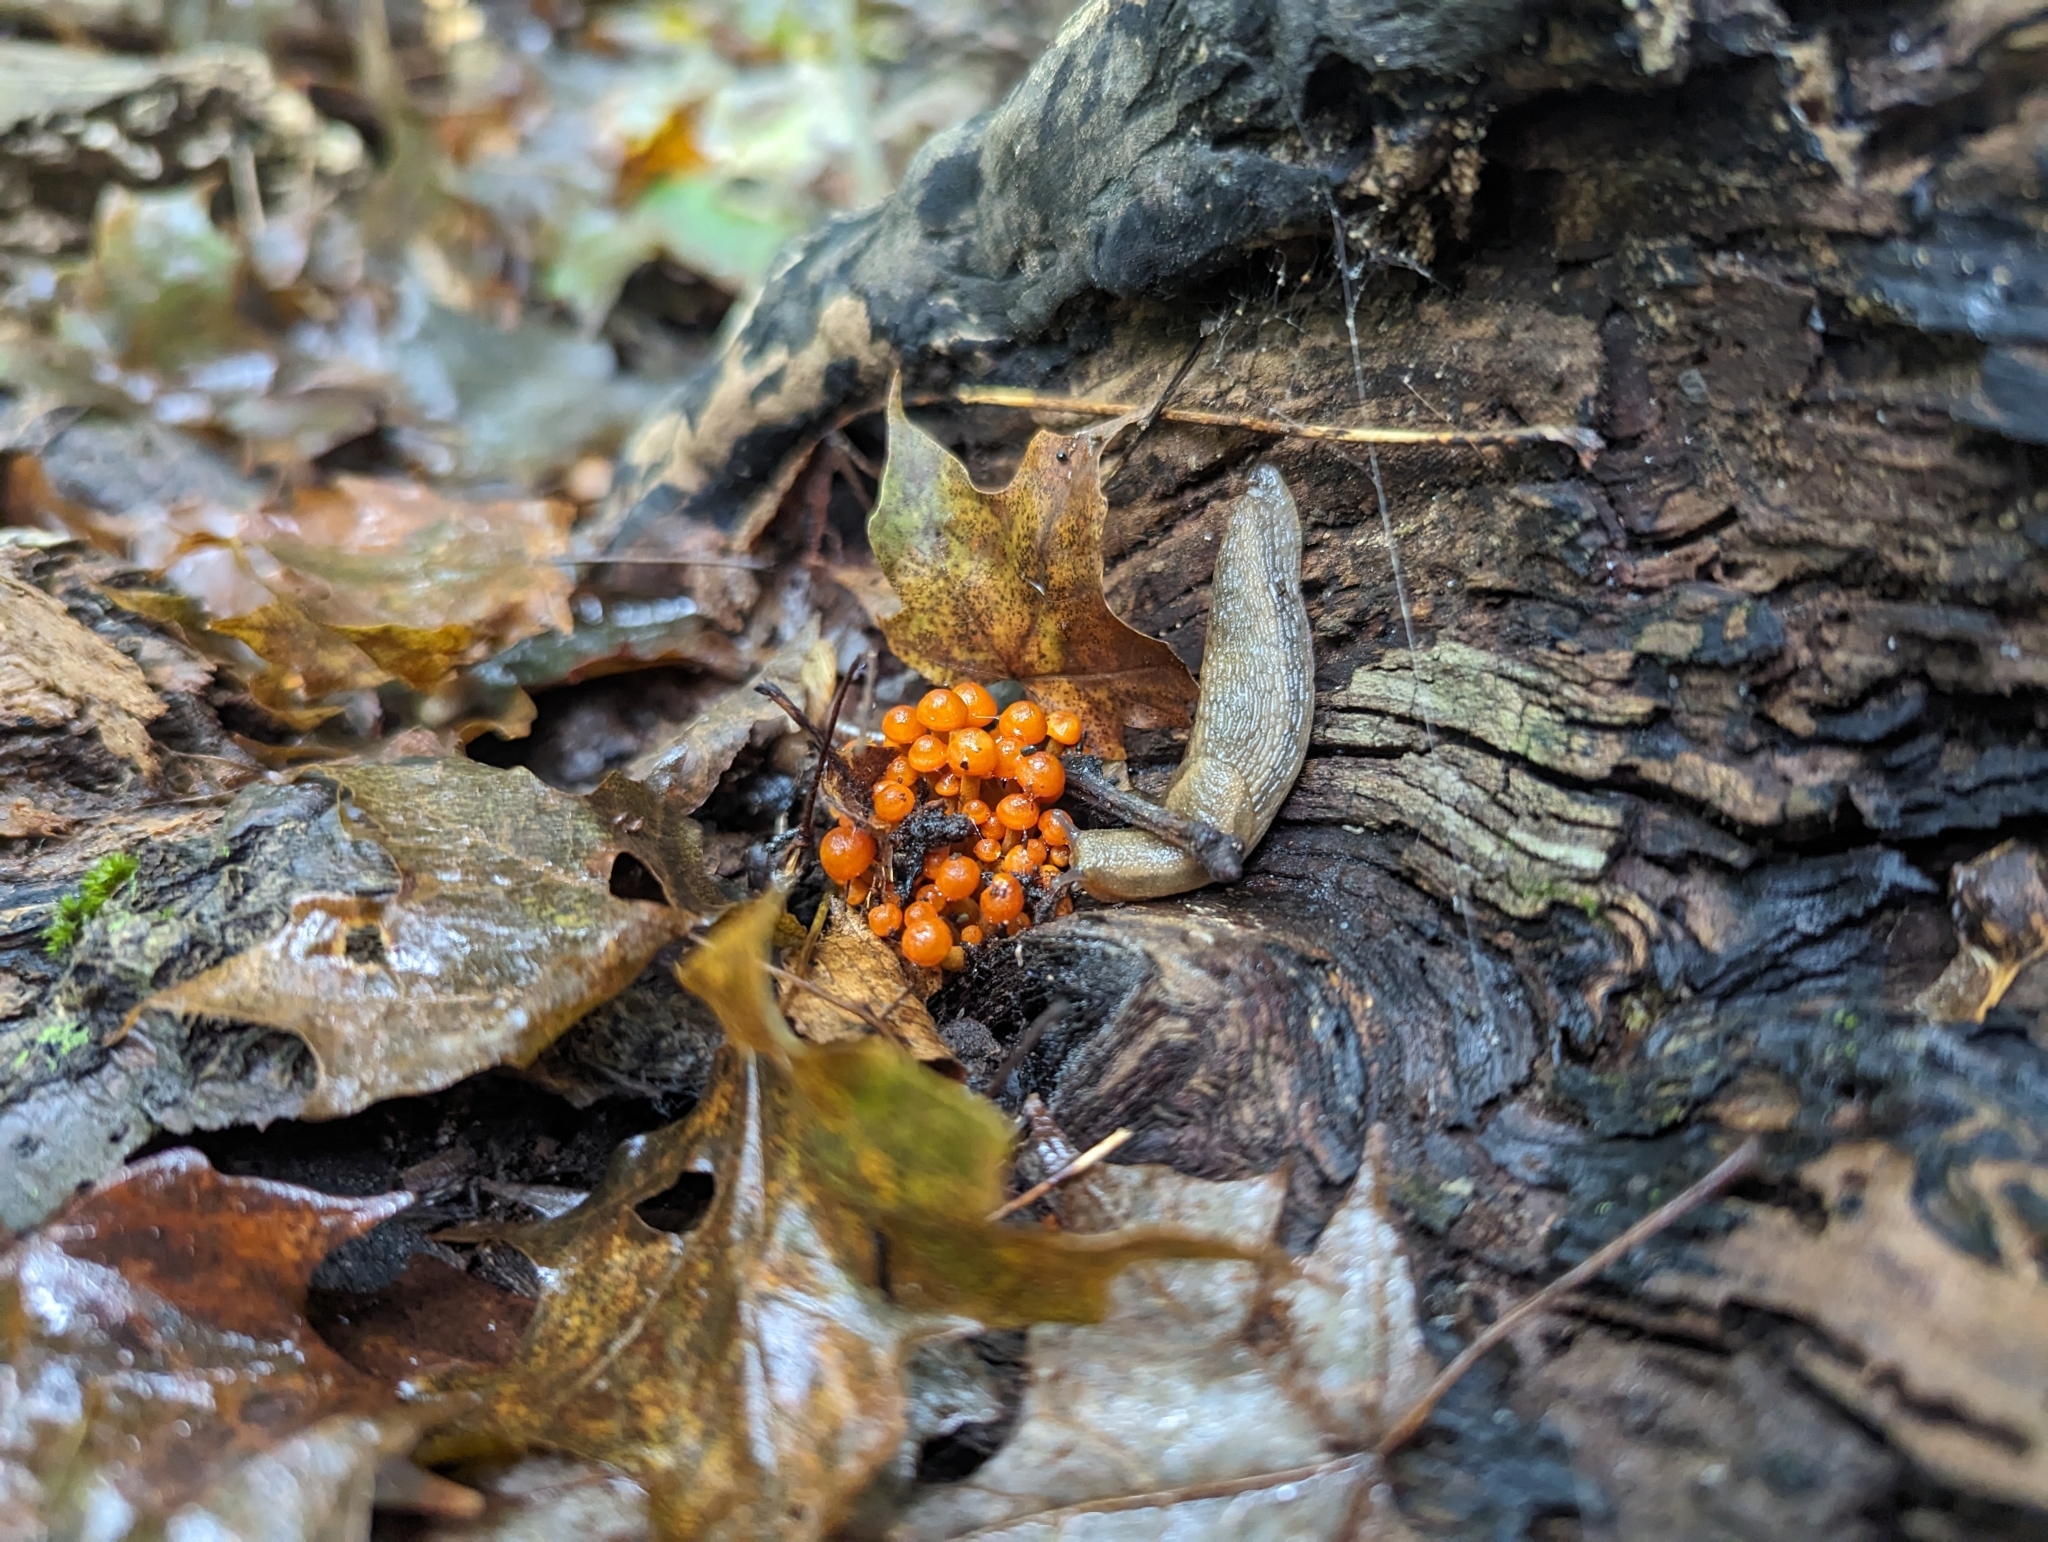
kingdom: Fungi
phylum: Basidiomycota
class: Agaricomycetes
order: Agaricales
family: Mycenaceae
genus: Mycena
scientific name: Mycena leaiana
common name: Orange mycena
